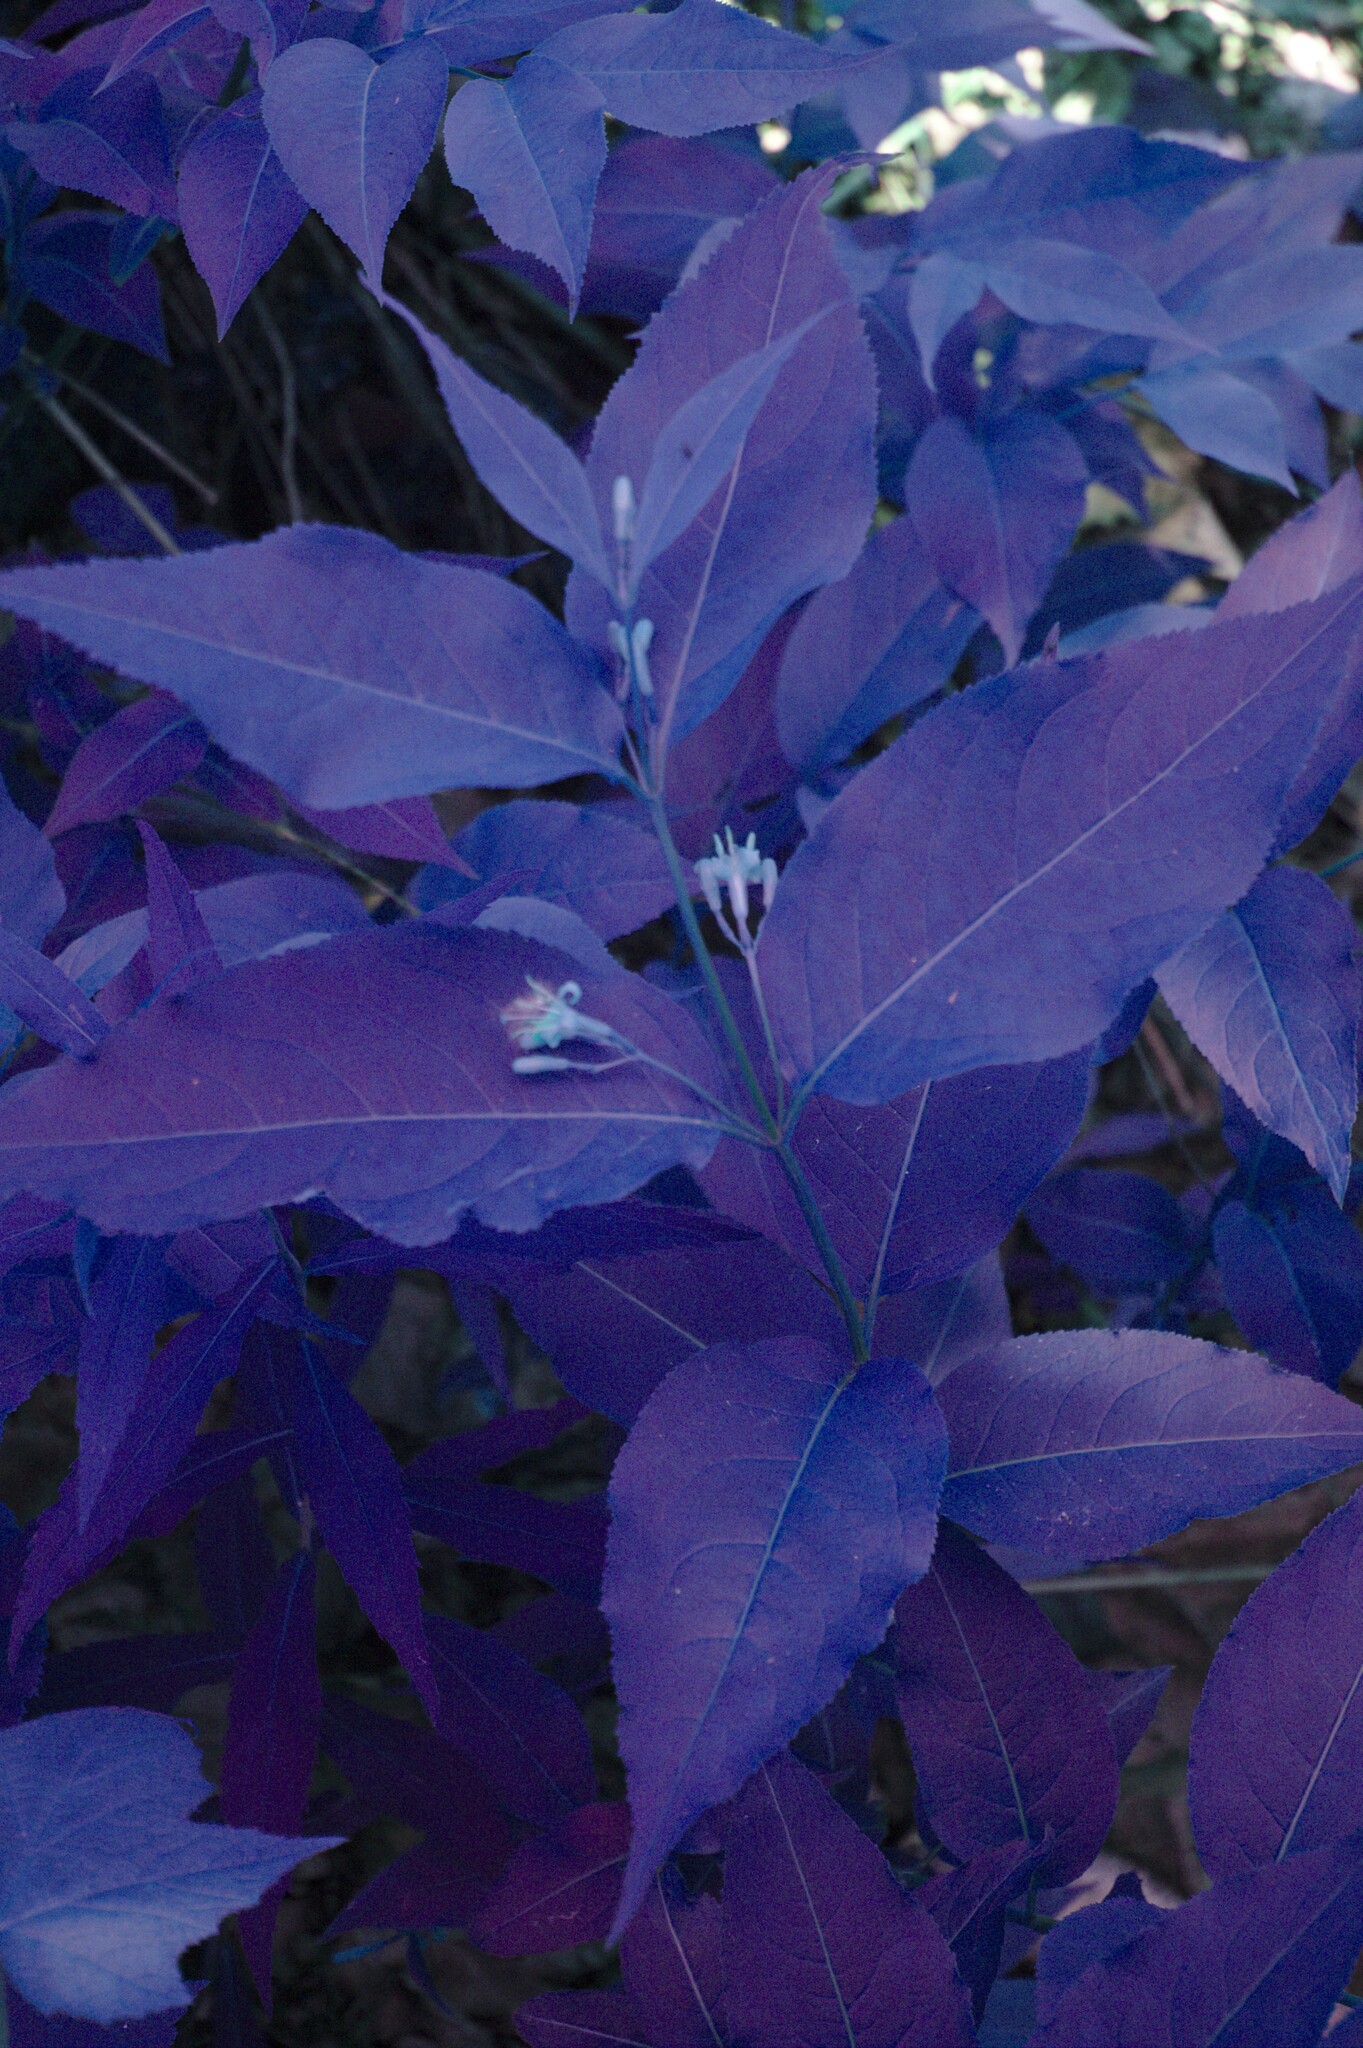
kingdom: Plantae
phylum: Tracheophyta
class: Magnoliopsida
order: Dipsacales
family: Caprifoliaceae
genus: Diervilla
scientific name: Diervilla lonicera
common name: Bush-honeysuckle
